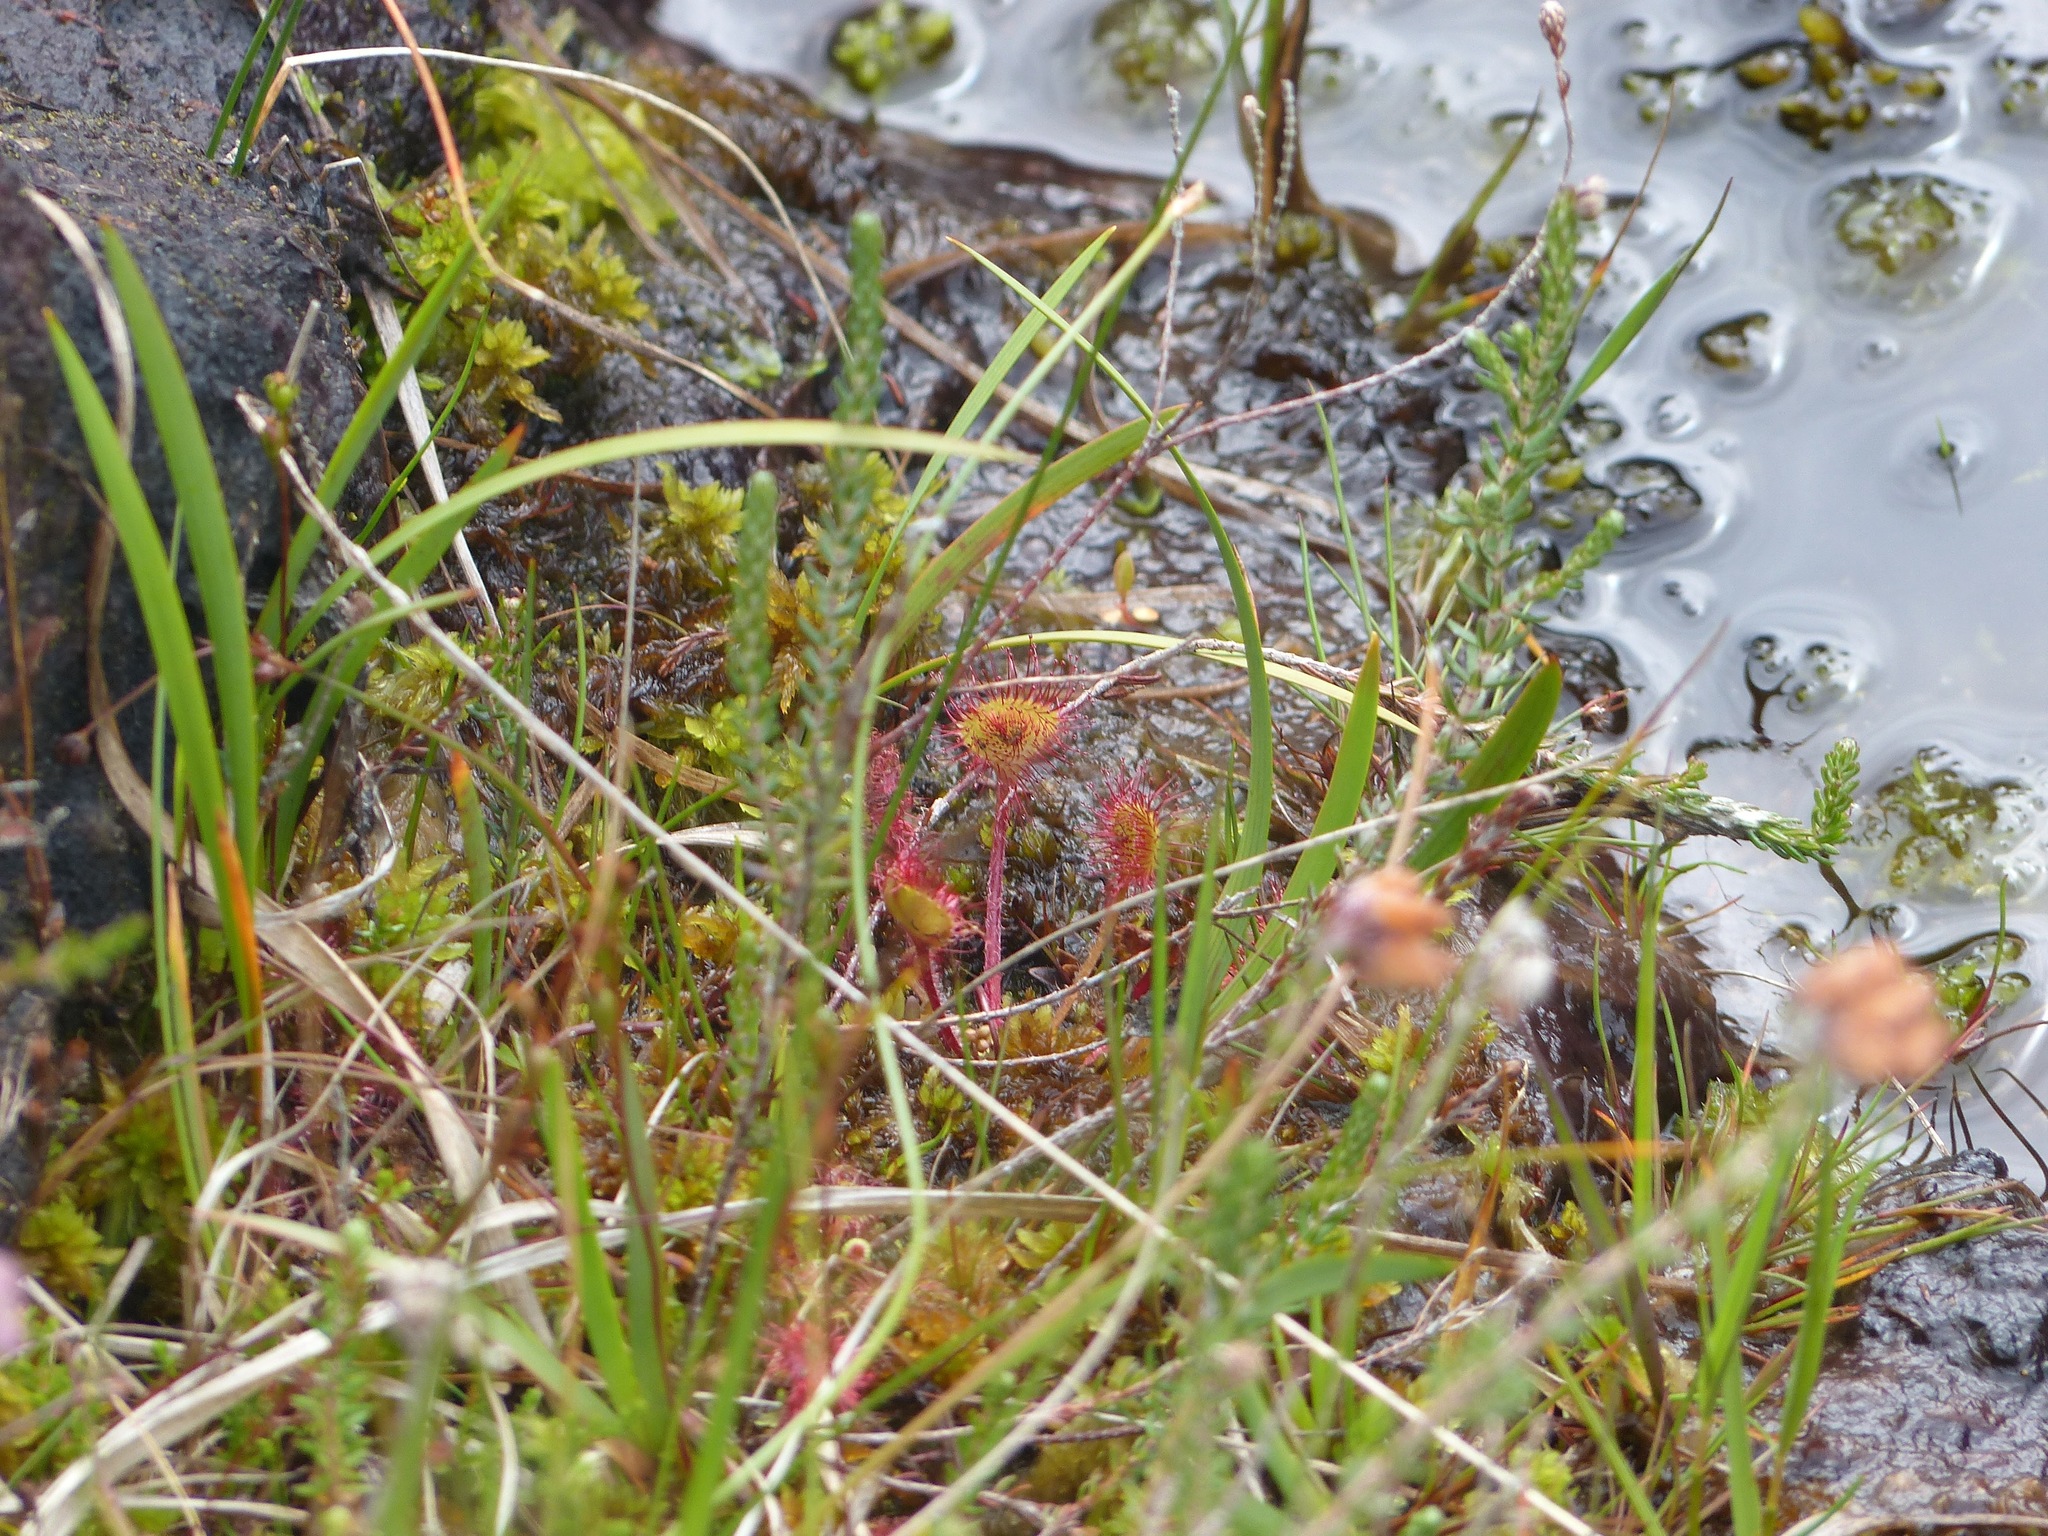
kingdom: Plantae
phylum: Tracheophyta
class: Magnoliopsida
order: Caryophyllales
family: Droseraceae
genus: Drosera
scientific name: Drosera rotundifolia
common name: Round-leaved sundew
